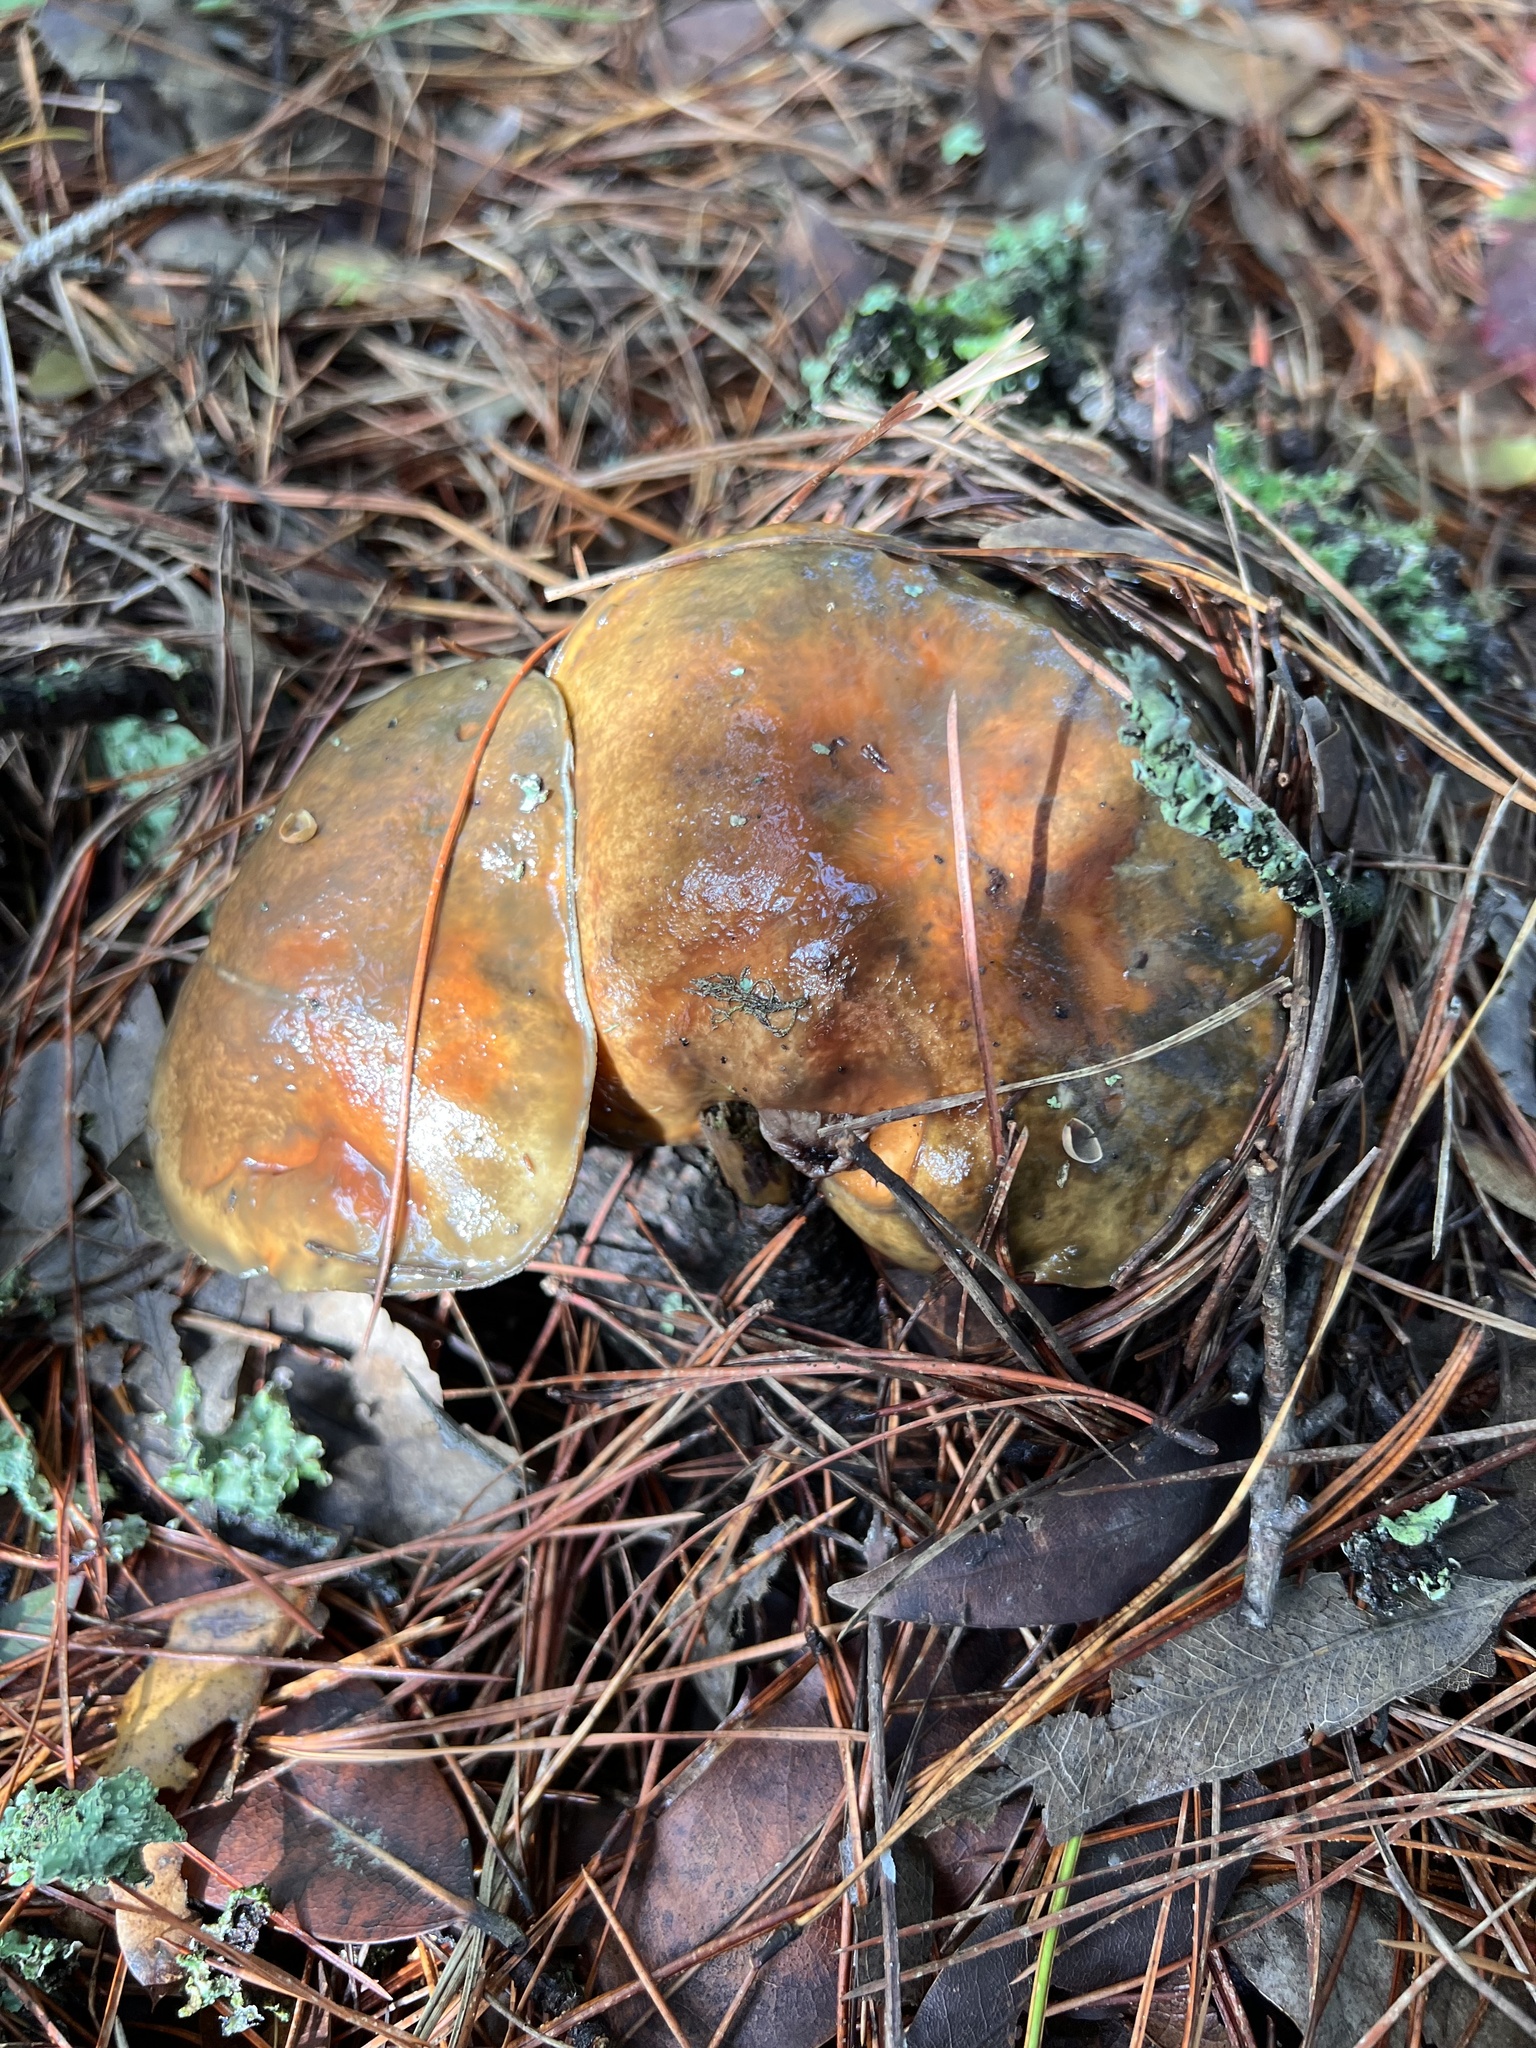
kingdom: Fungi
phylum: Basidiomycota
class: Agaricomycetes
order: Boletales
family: Suillaceae
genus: Suillus
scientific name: Suillus pungens
